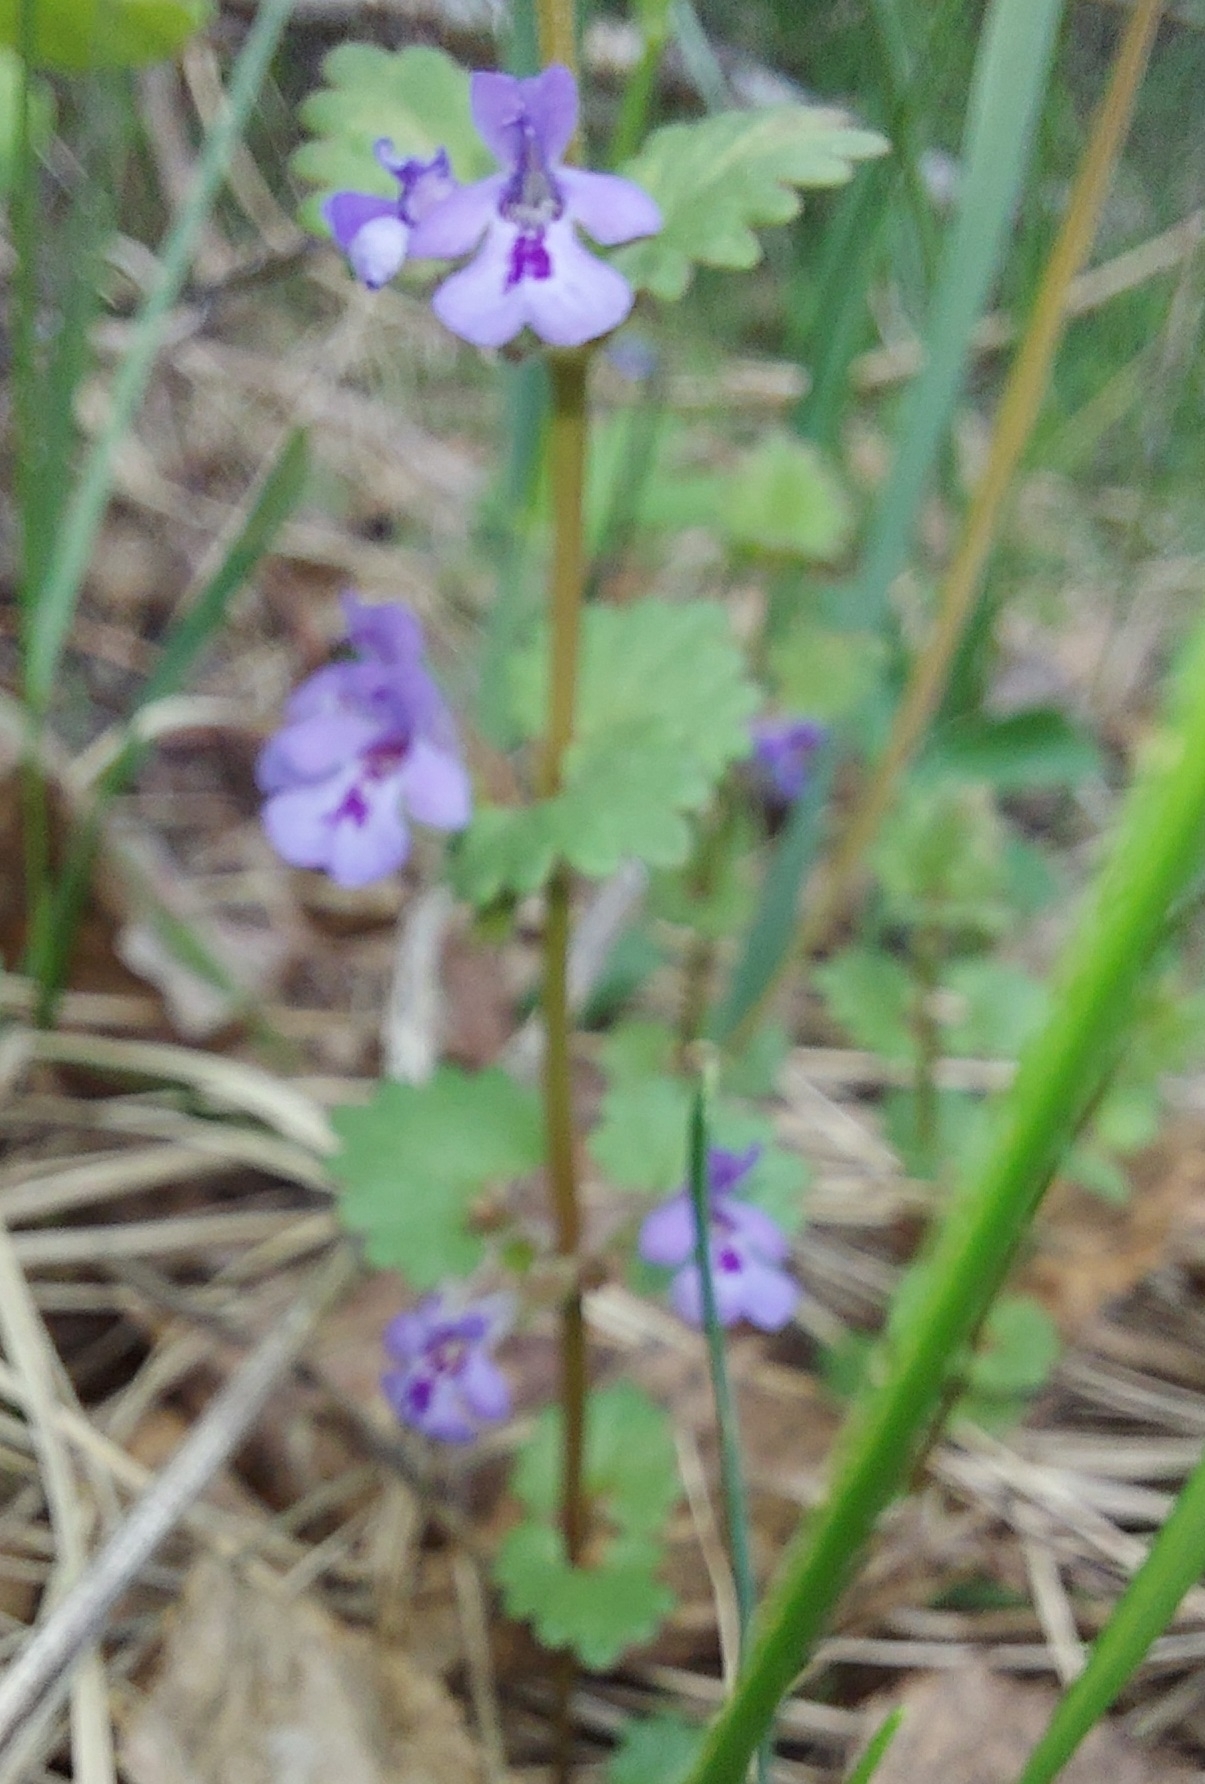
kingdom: Plantae
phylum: Tracheophyta
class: Magnoliopsida
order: Lamiales
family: Lamiaceae
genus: Glechoma
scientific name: Glechoma hederacea
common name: Ground ivy
